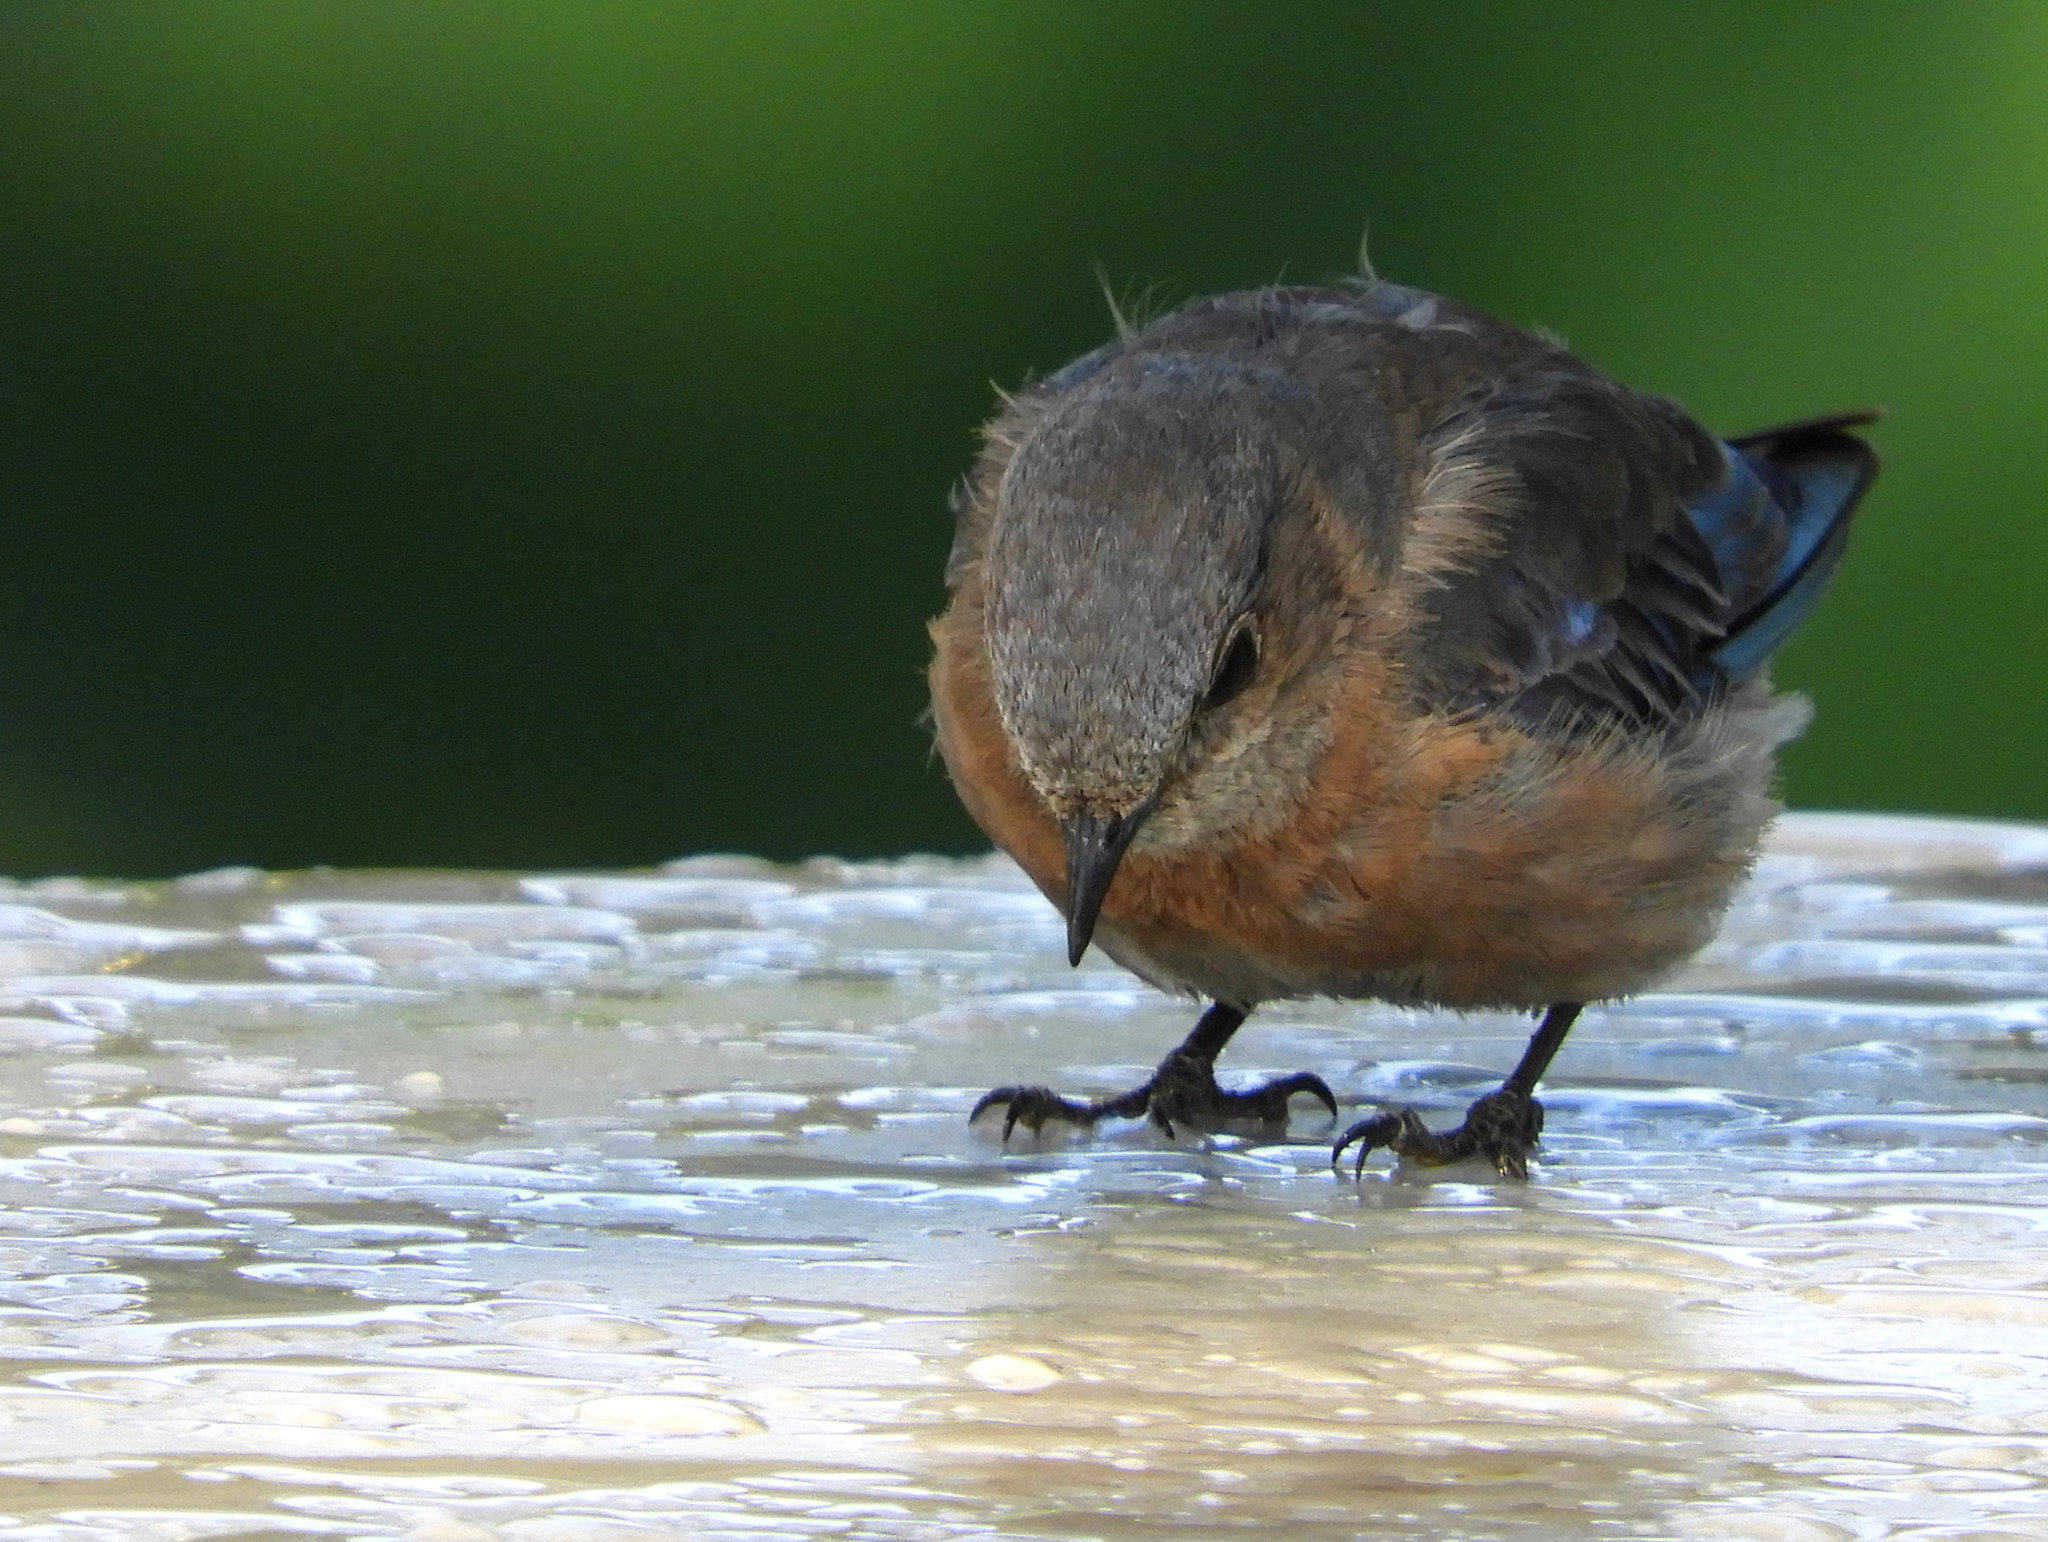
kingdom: Animalia
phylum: Chordata
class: Aves
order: Passeriformes
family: Turdidae
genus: Sialia
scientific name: Sialia mexicana
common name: Western bluebird
